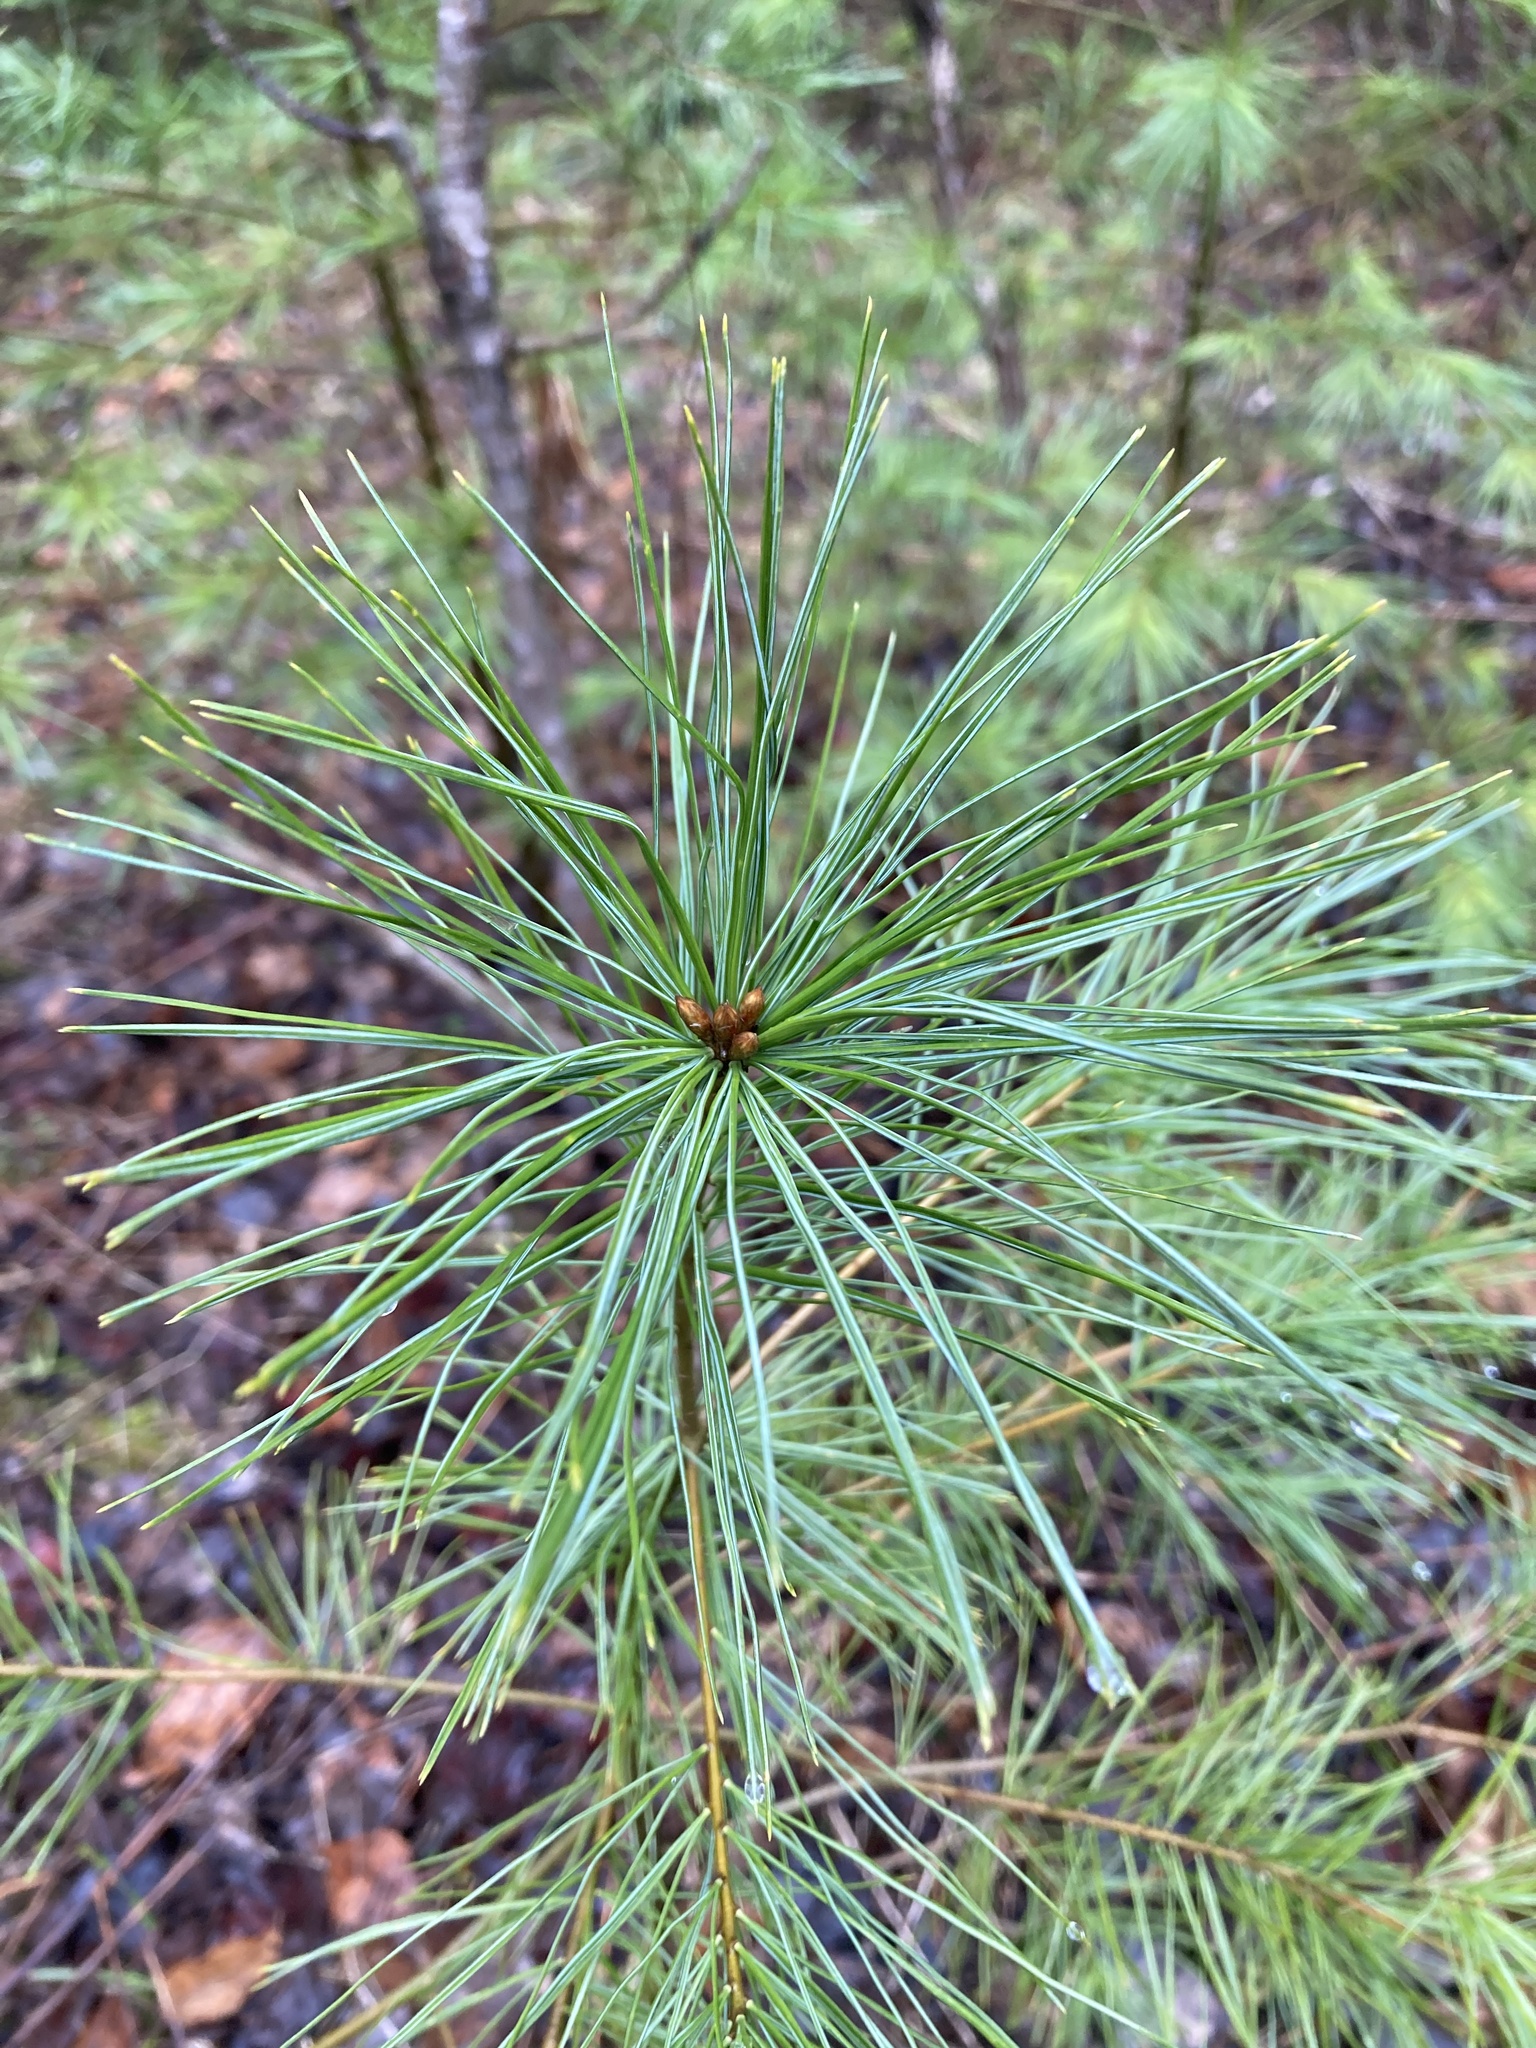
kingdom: Plantae
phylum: Tracheophyta
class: Pinopsida
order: Pinales
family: Pinaceae
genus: Pinus
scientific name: Pinus strobus
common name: Weymouth pine
